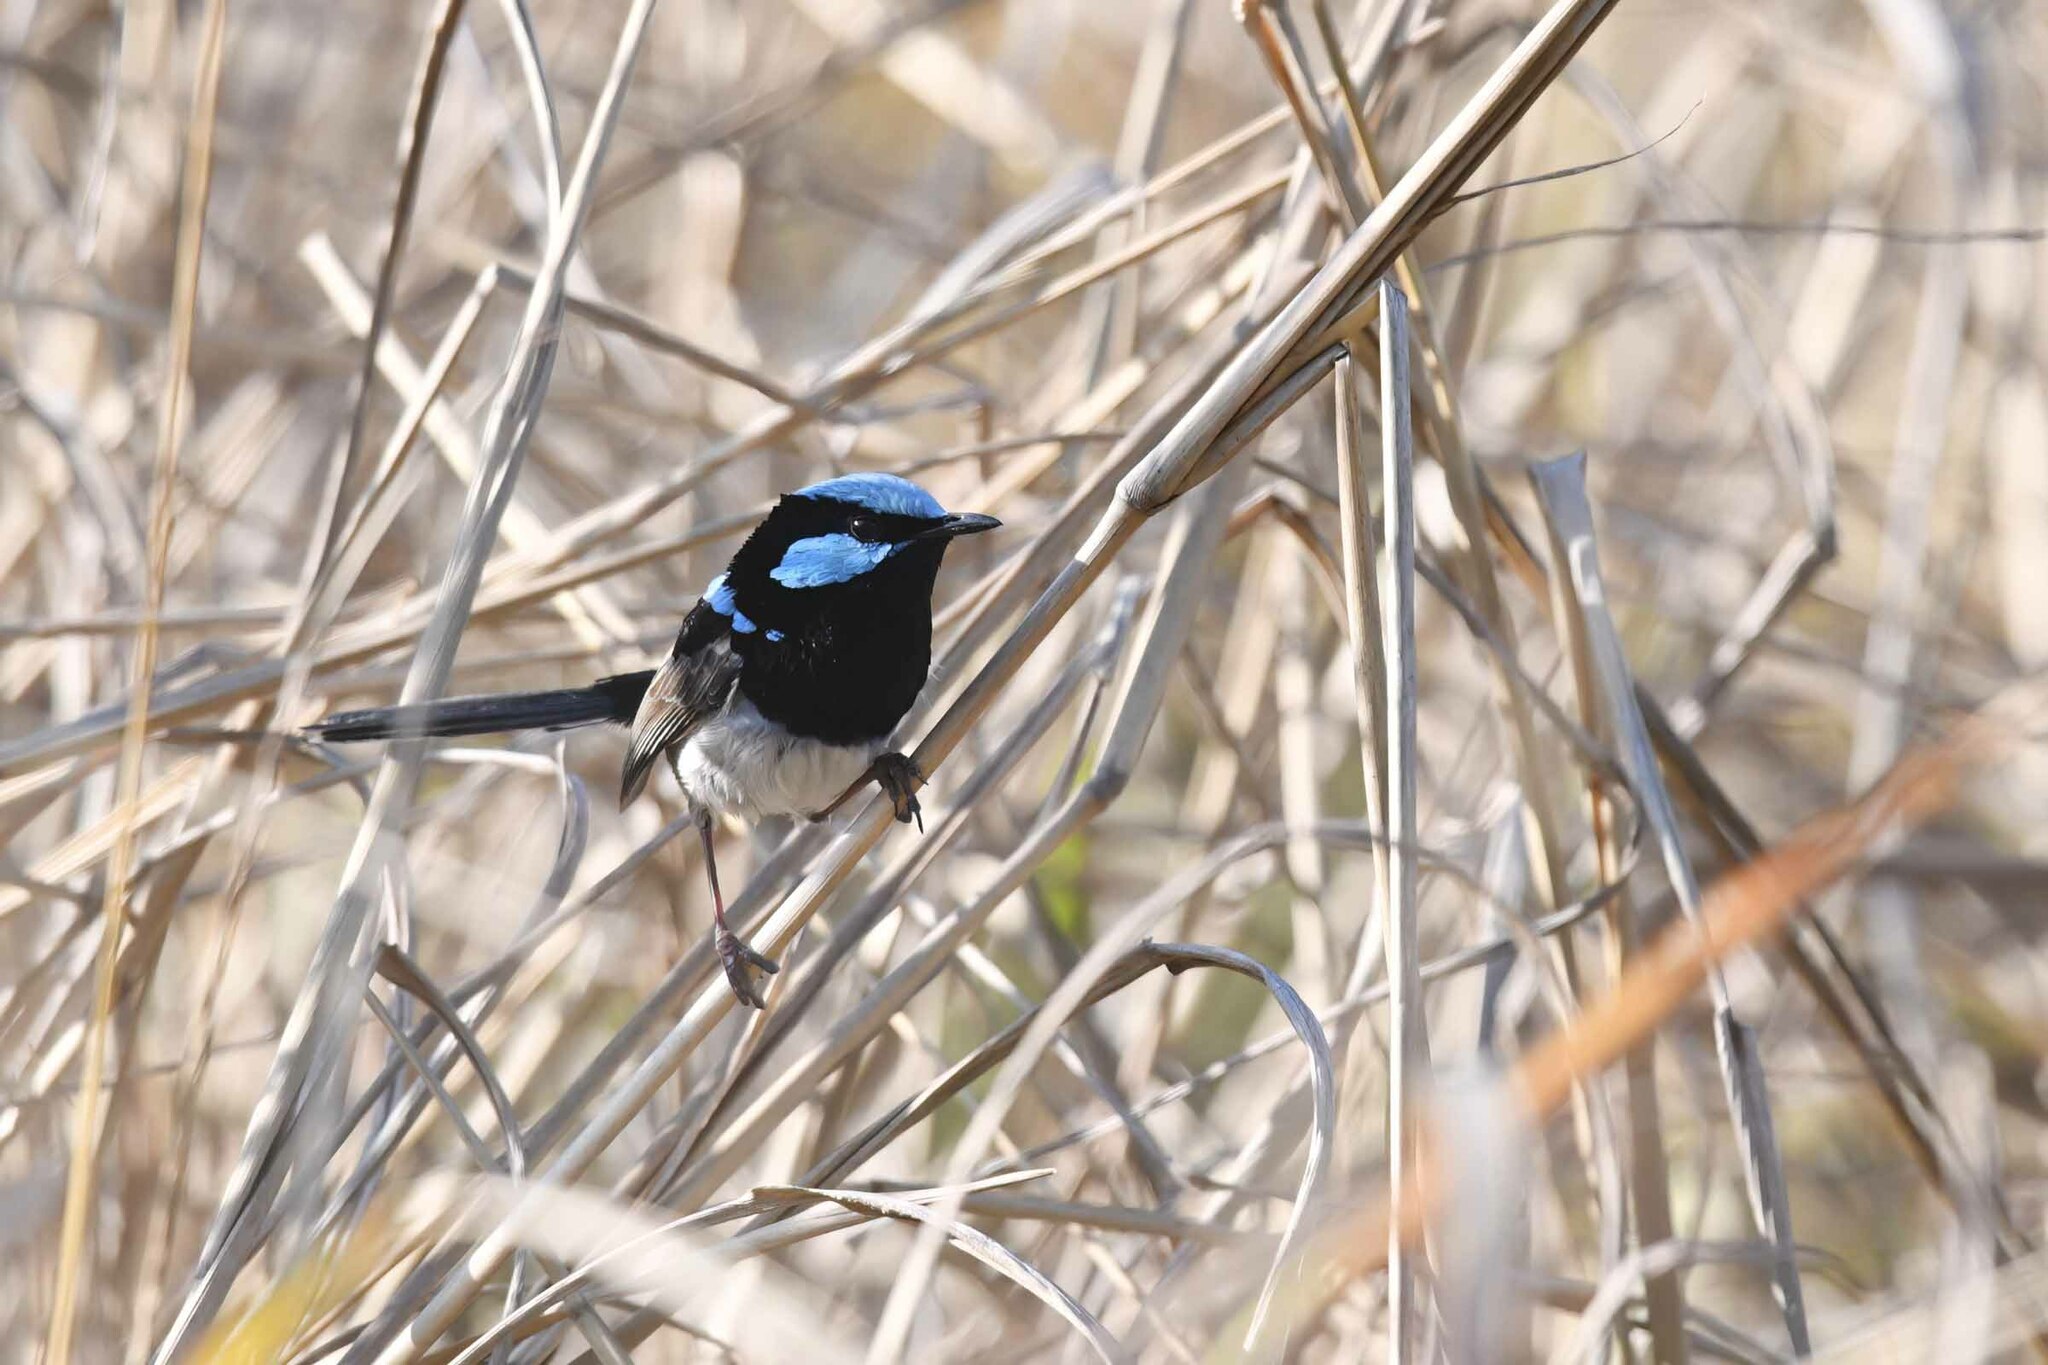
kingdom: Animalia
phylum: Chordata
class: Aves
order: Passeriformes
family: Maluridae
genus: Malurus
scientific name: Malurus cyaneus
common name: Superb fairywren
